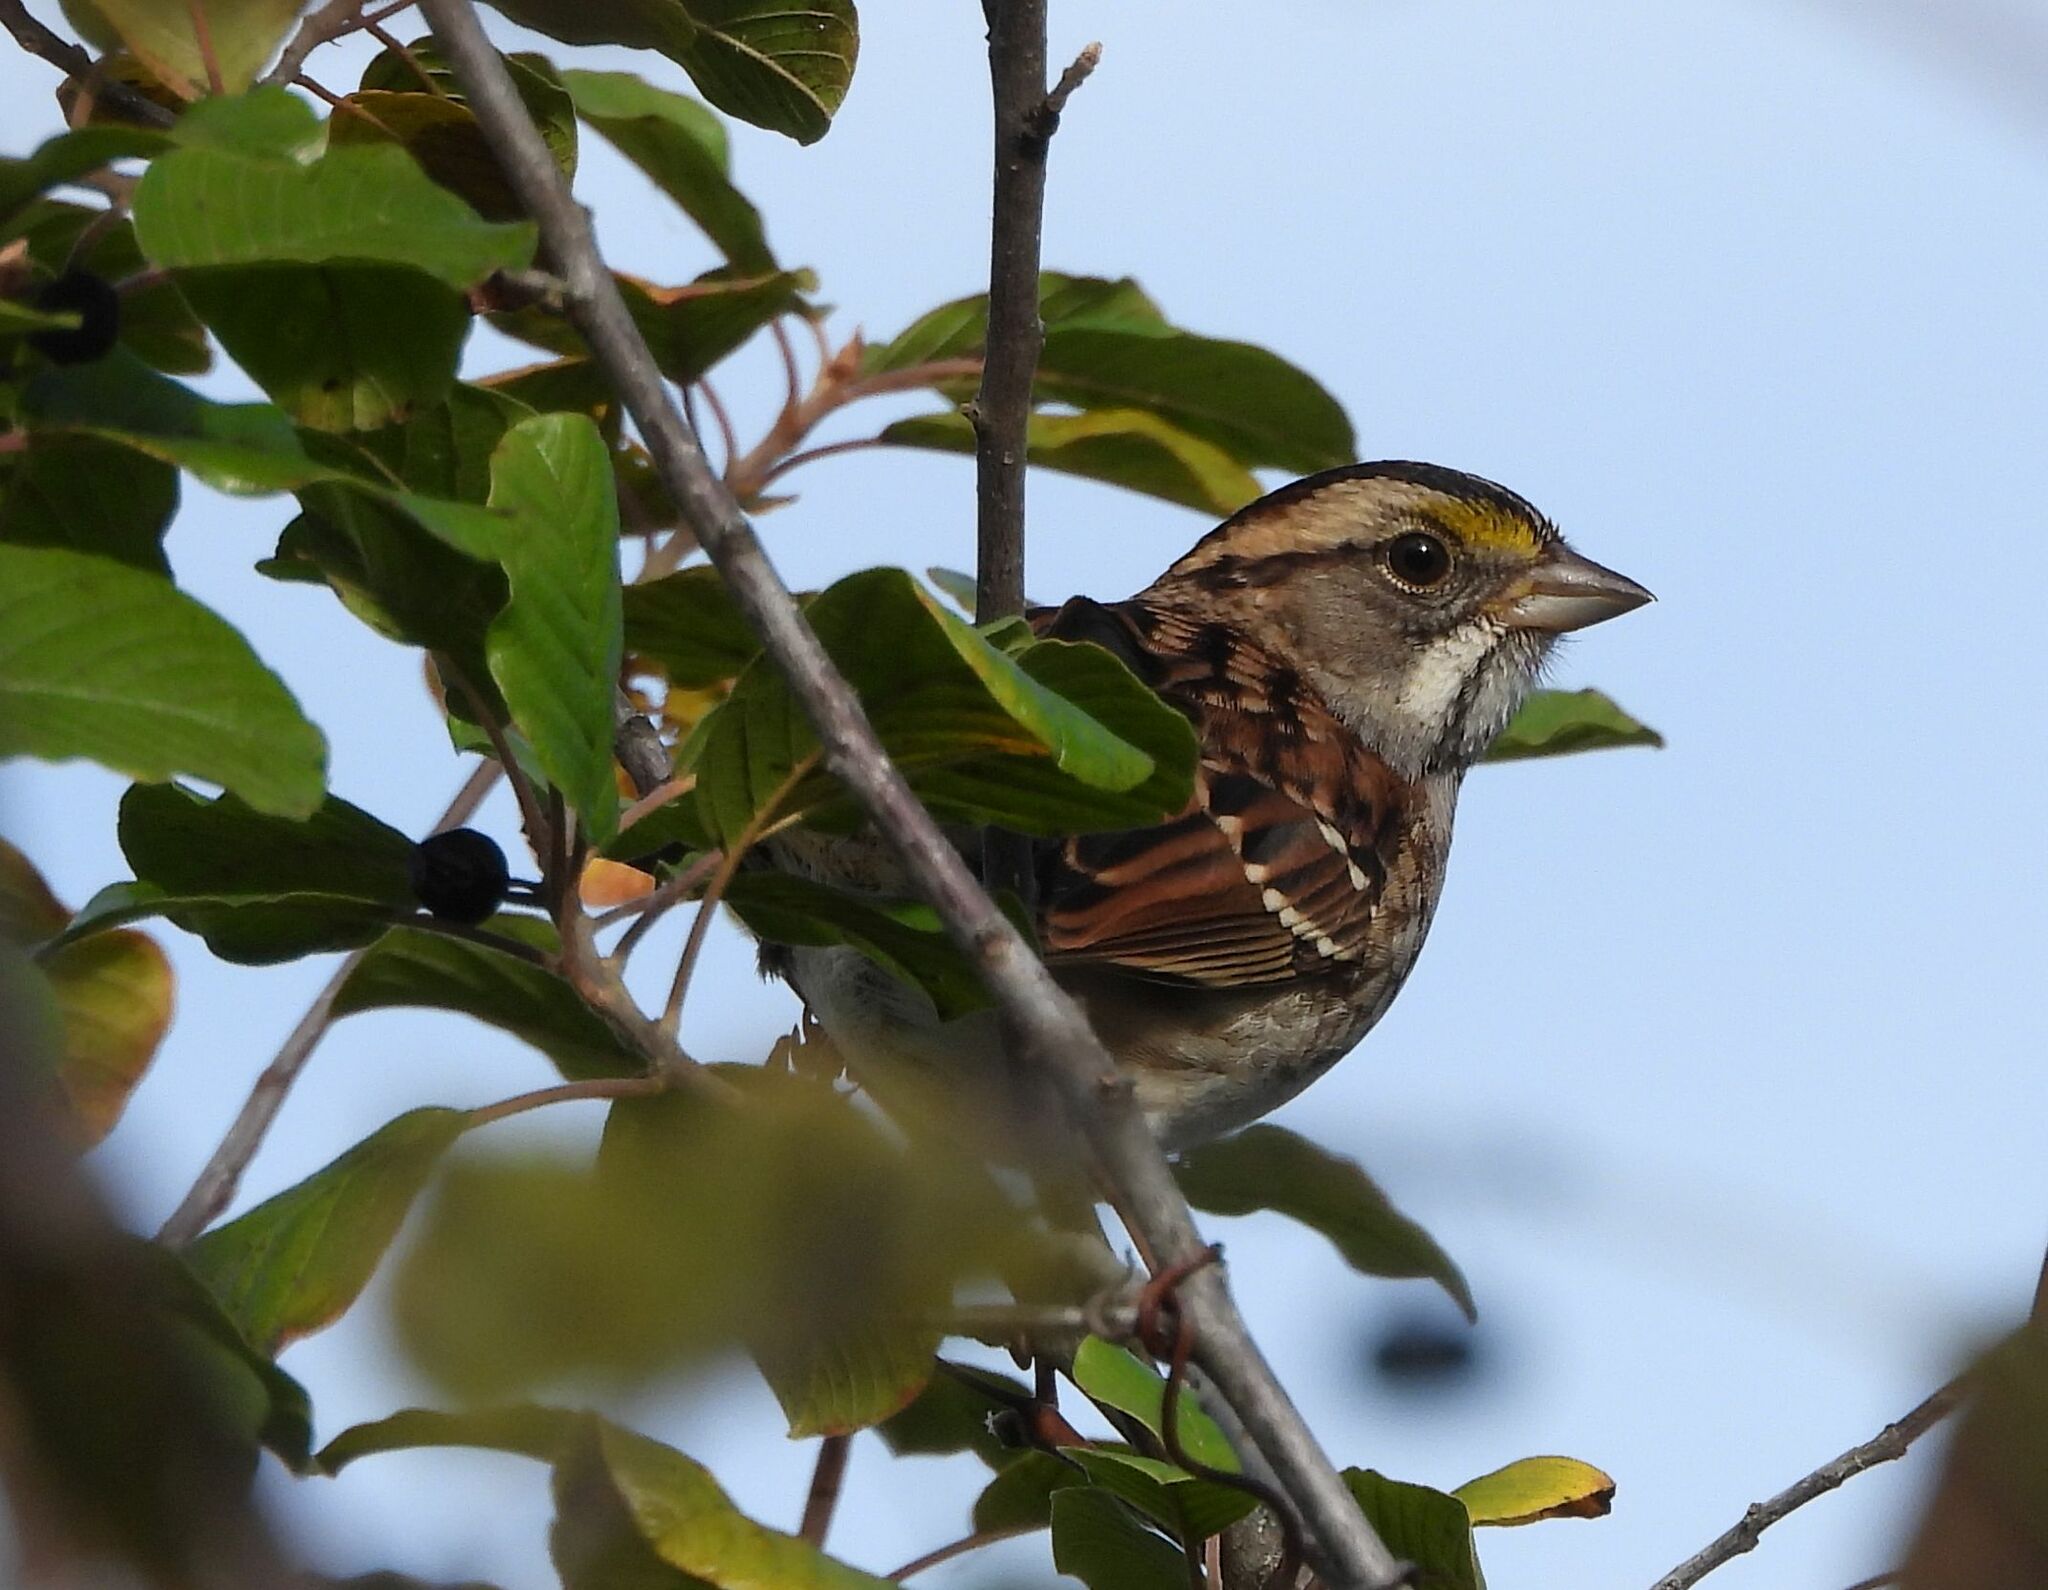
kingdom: Animalia
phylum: Chordata
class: Aves
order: Passeriformes
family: Passerellidae
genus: Zonotrichia
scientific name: Zonotrichia albicollis
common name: White-throated sparrow
